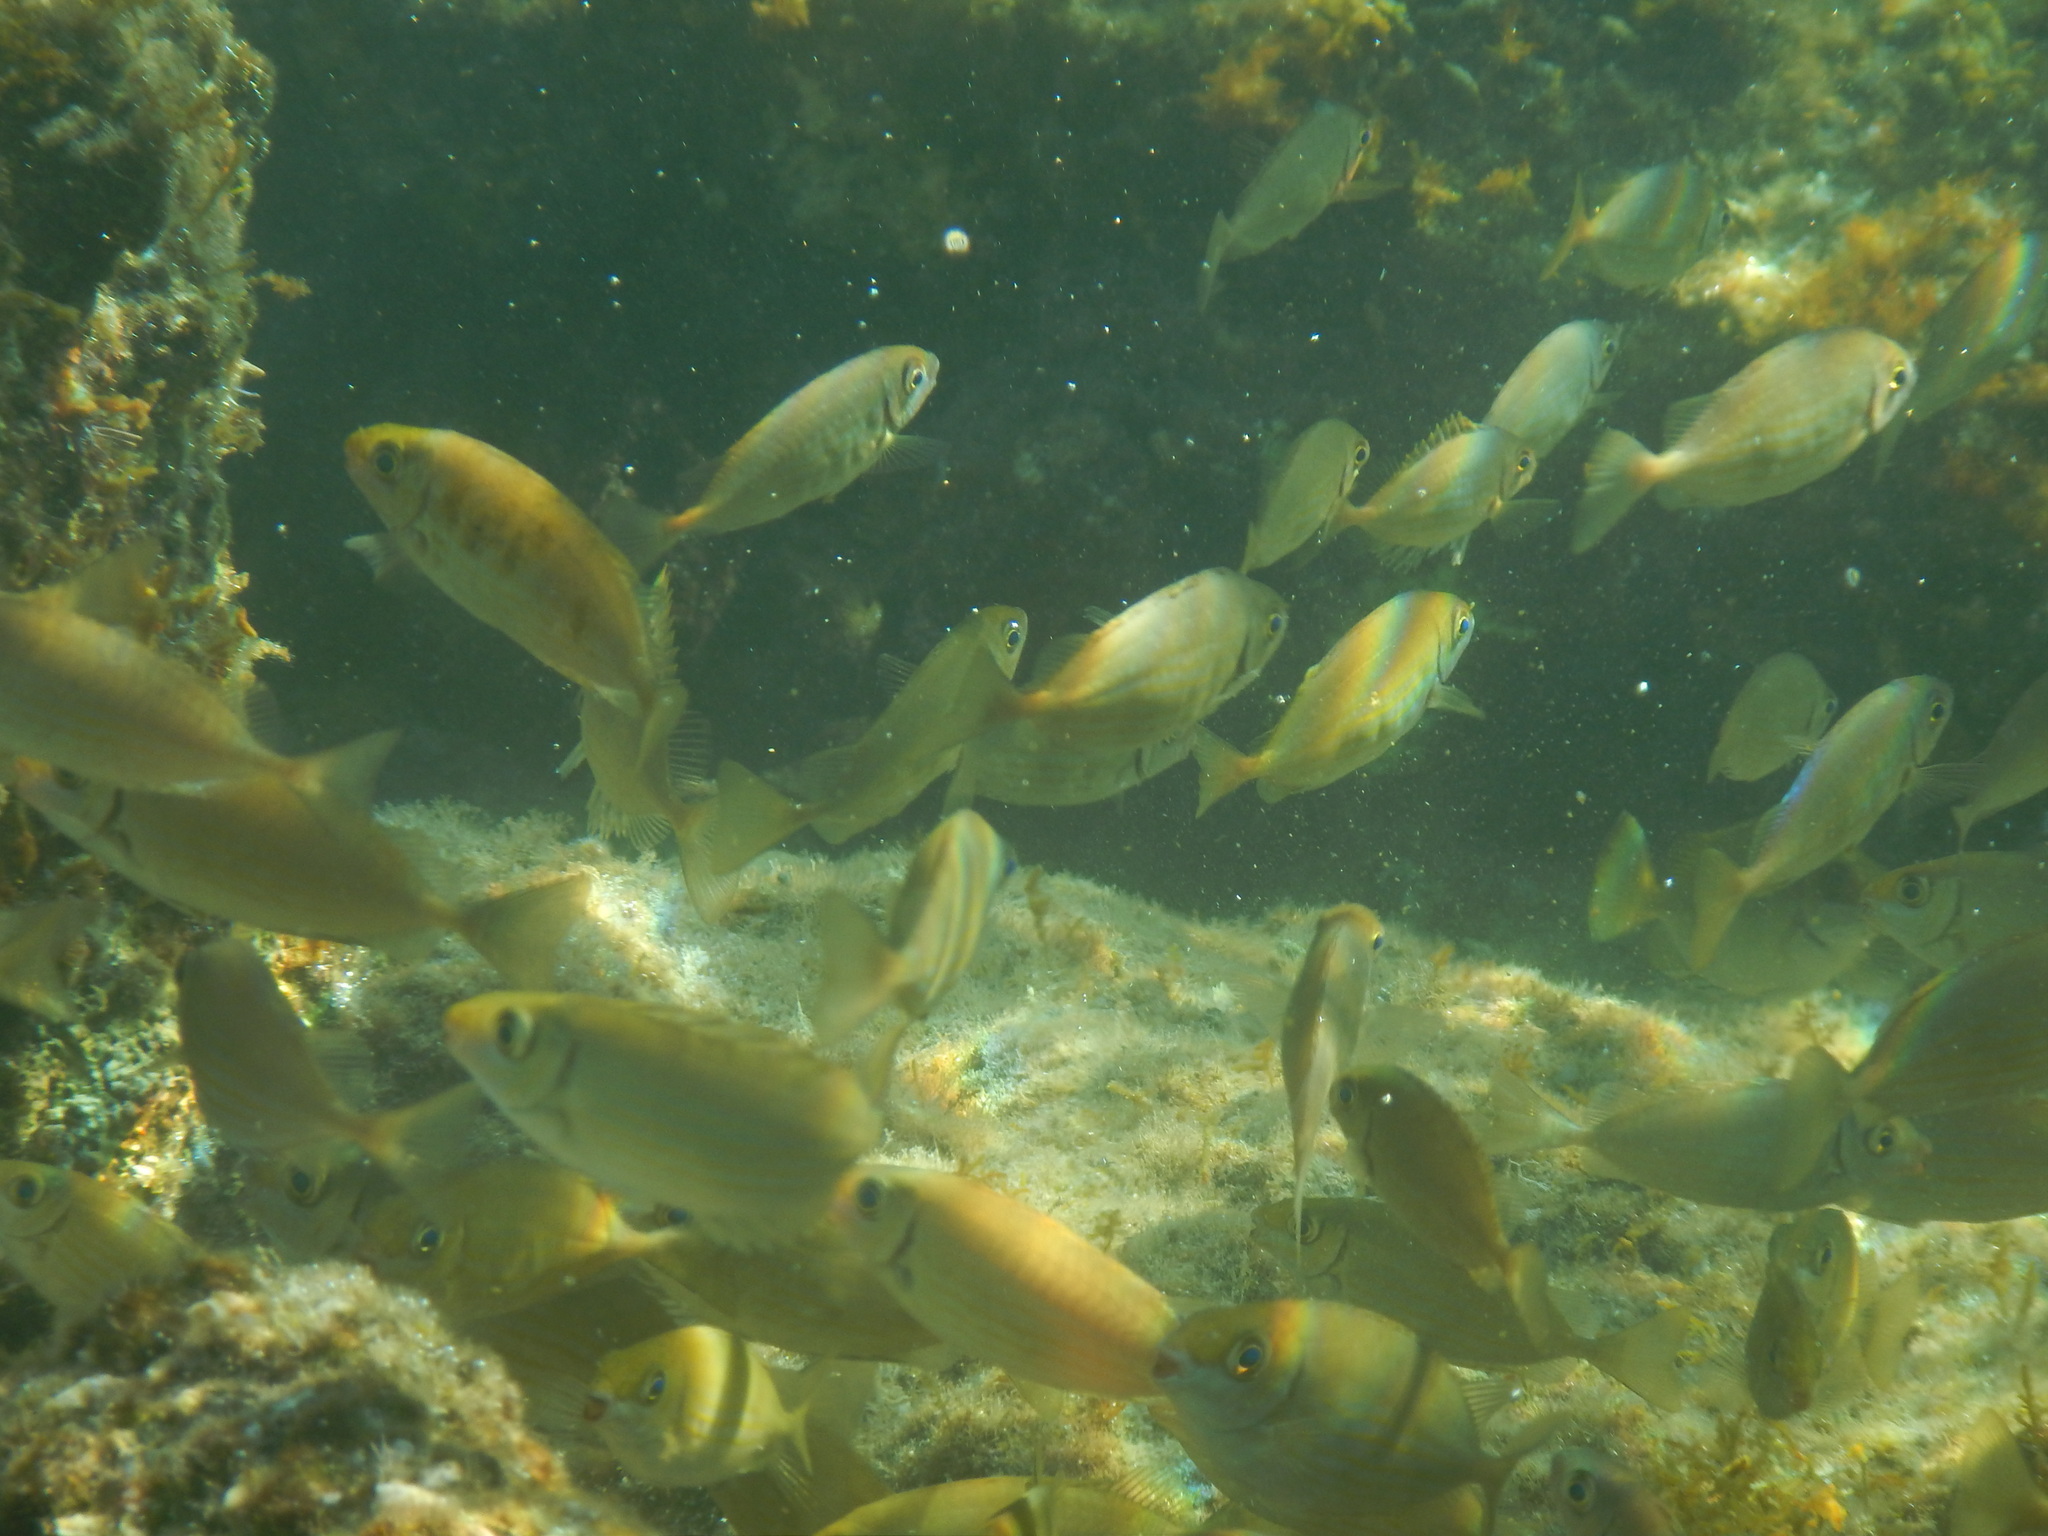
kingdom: Animalia
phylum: Chordata
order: Perciformes
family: Siganidae
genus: Siganus
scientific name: Siganus rivulatus
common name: Marbled spinefoot
